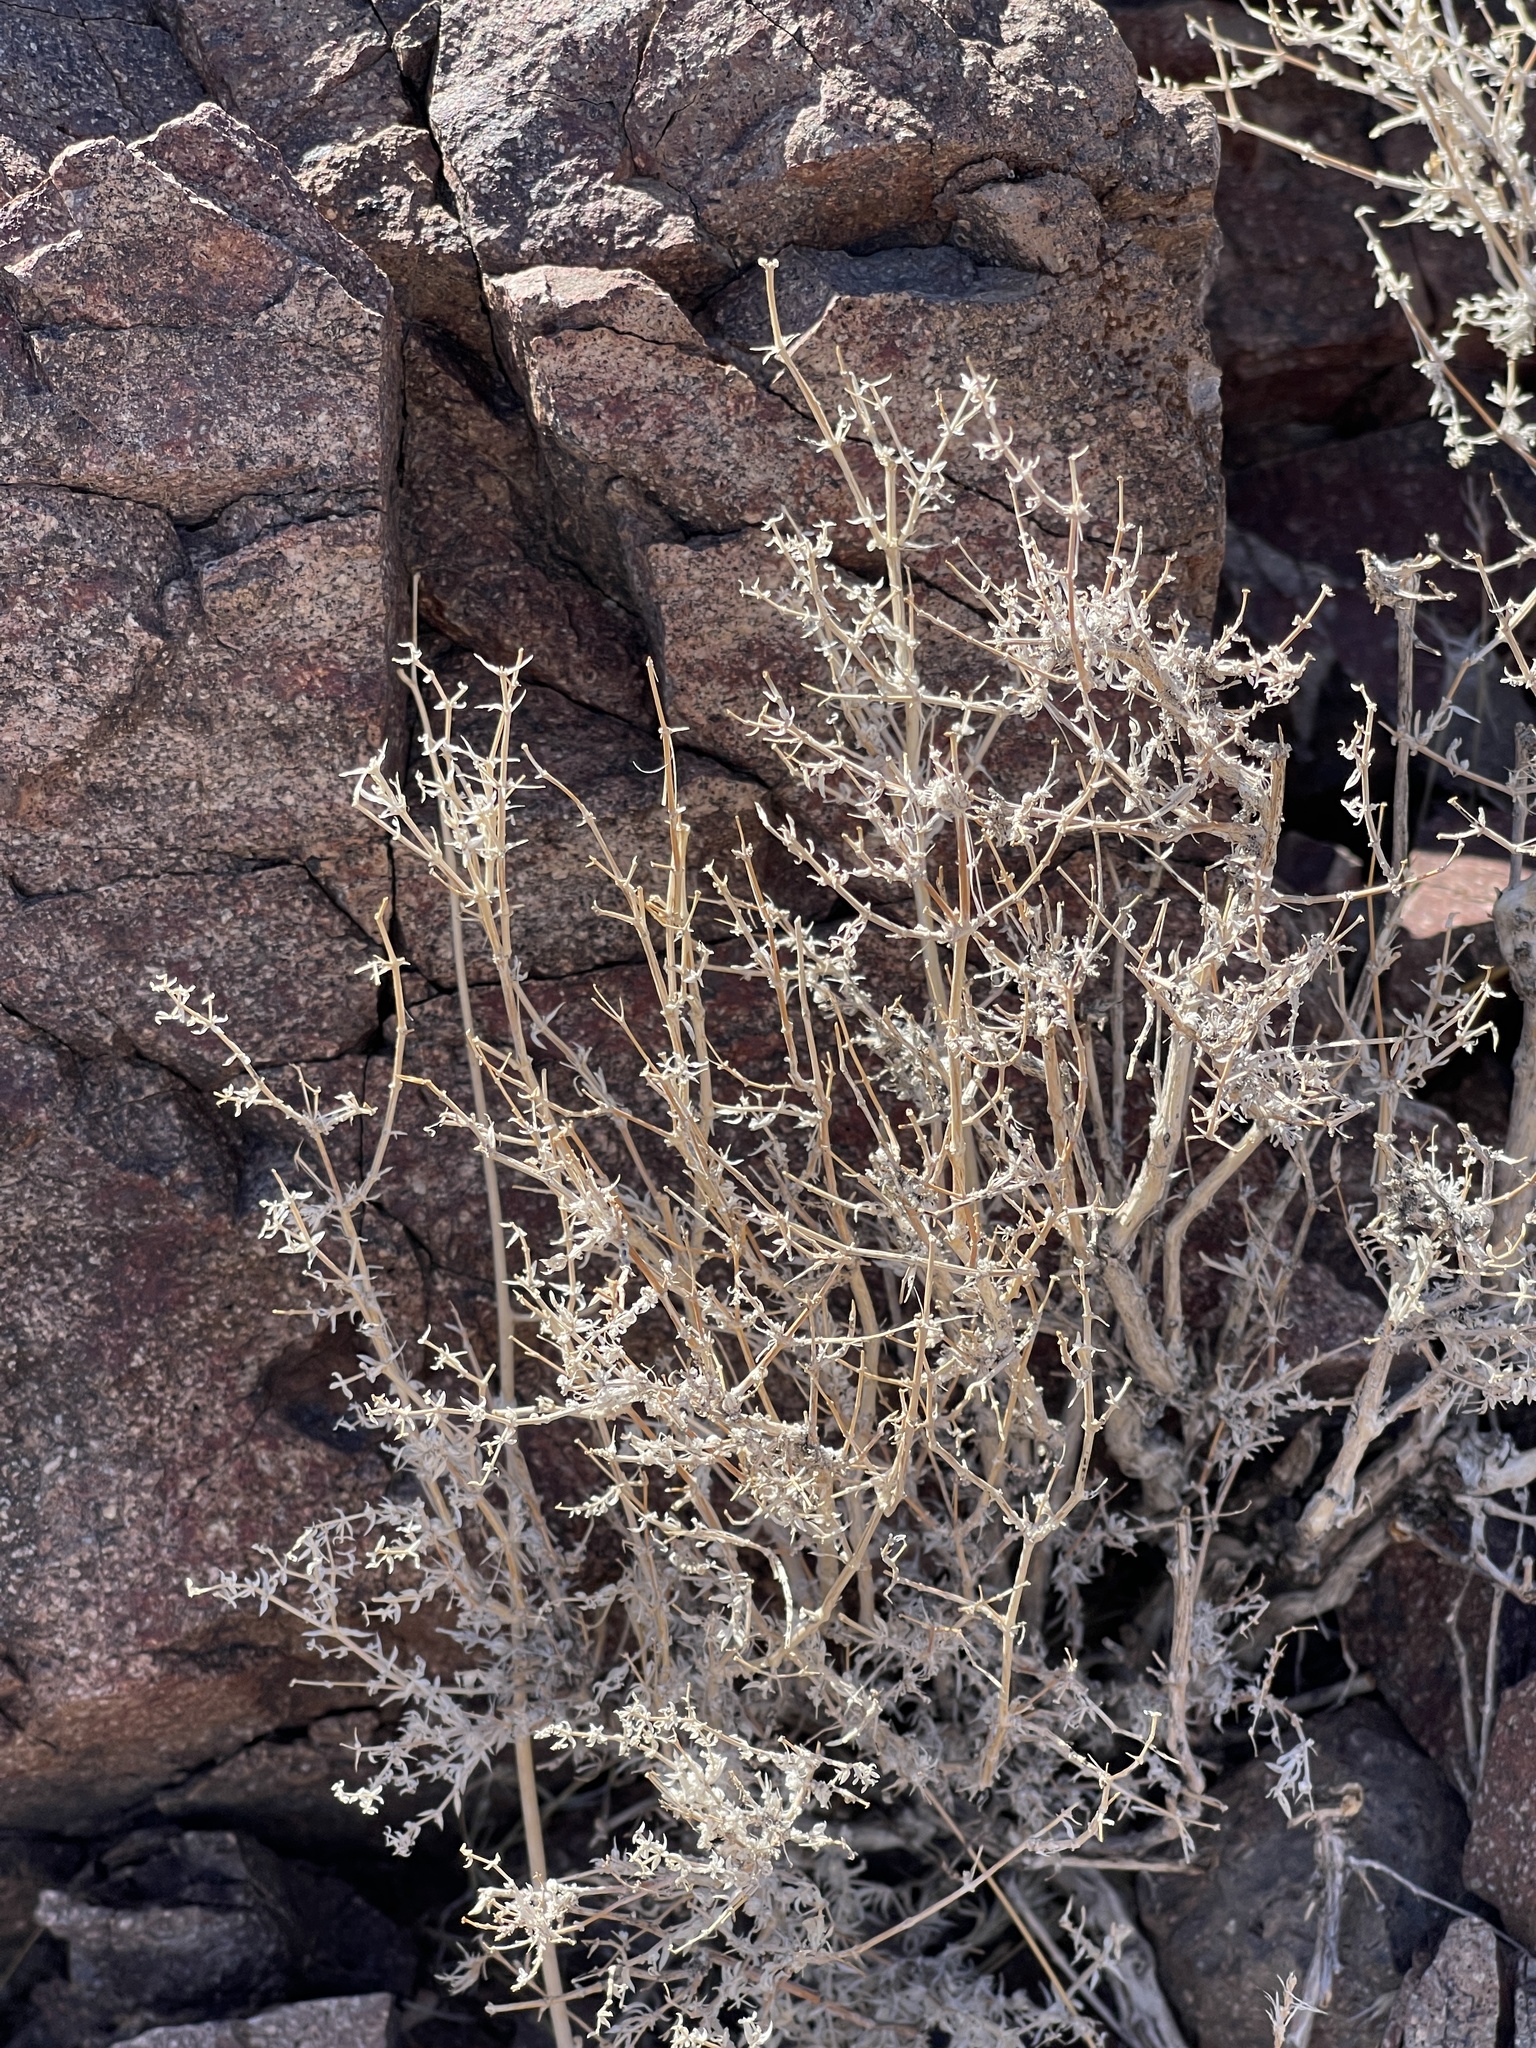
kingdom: Plantae
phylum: Tracheophyta
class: Magnoliopsida
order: Caryophyllales
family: Amaranthaceae
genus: Krascheninnikovia
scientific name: Krascheninnikovia lanata
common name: Winterfat
